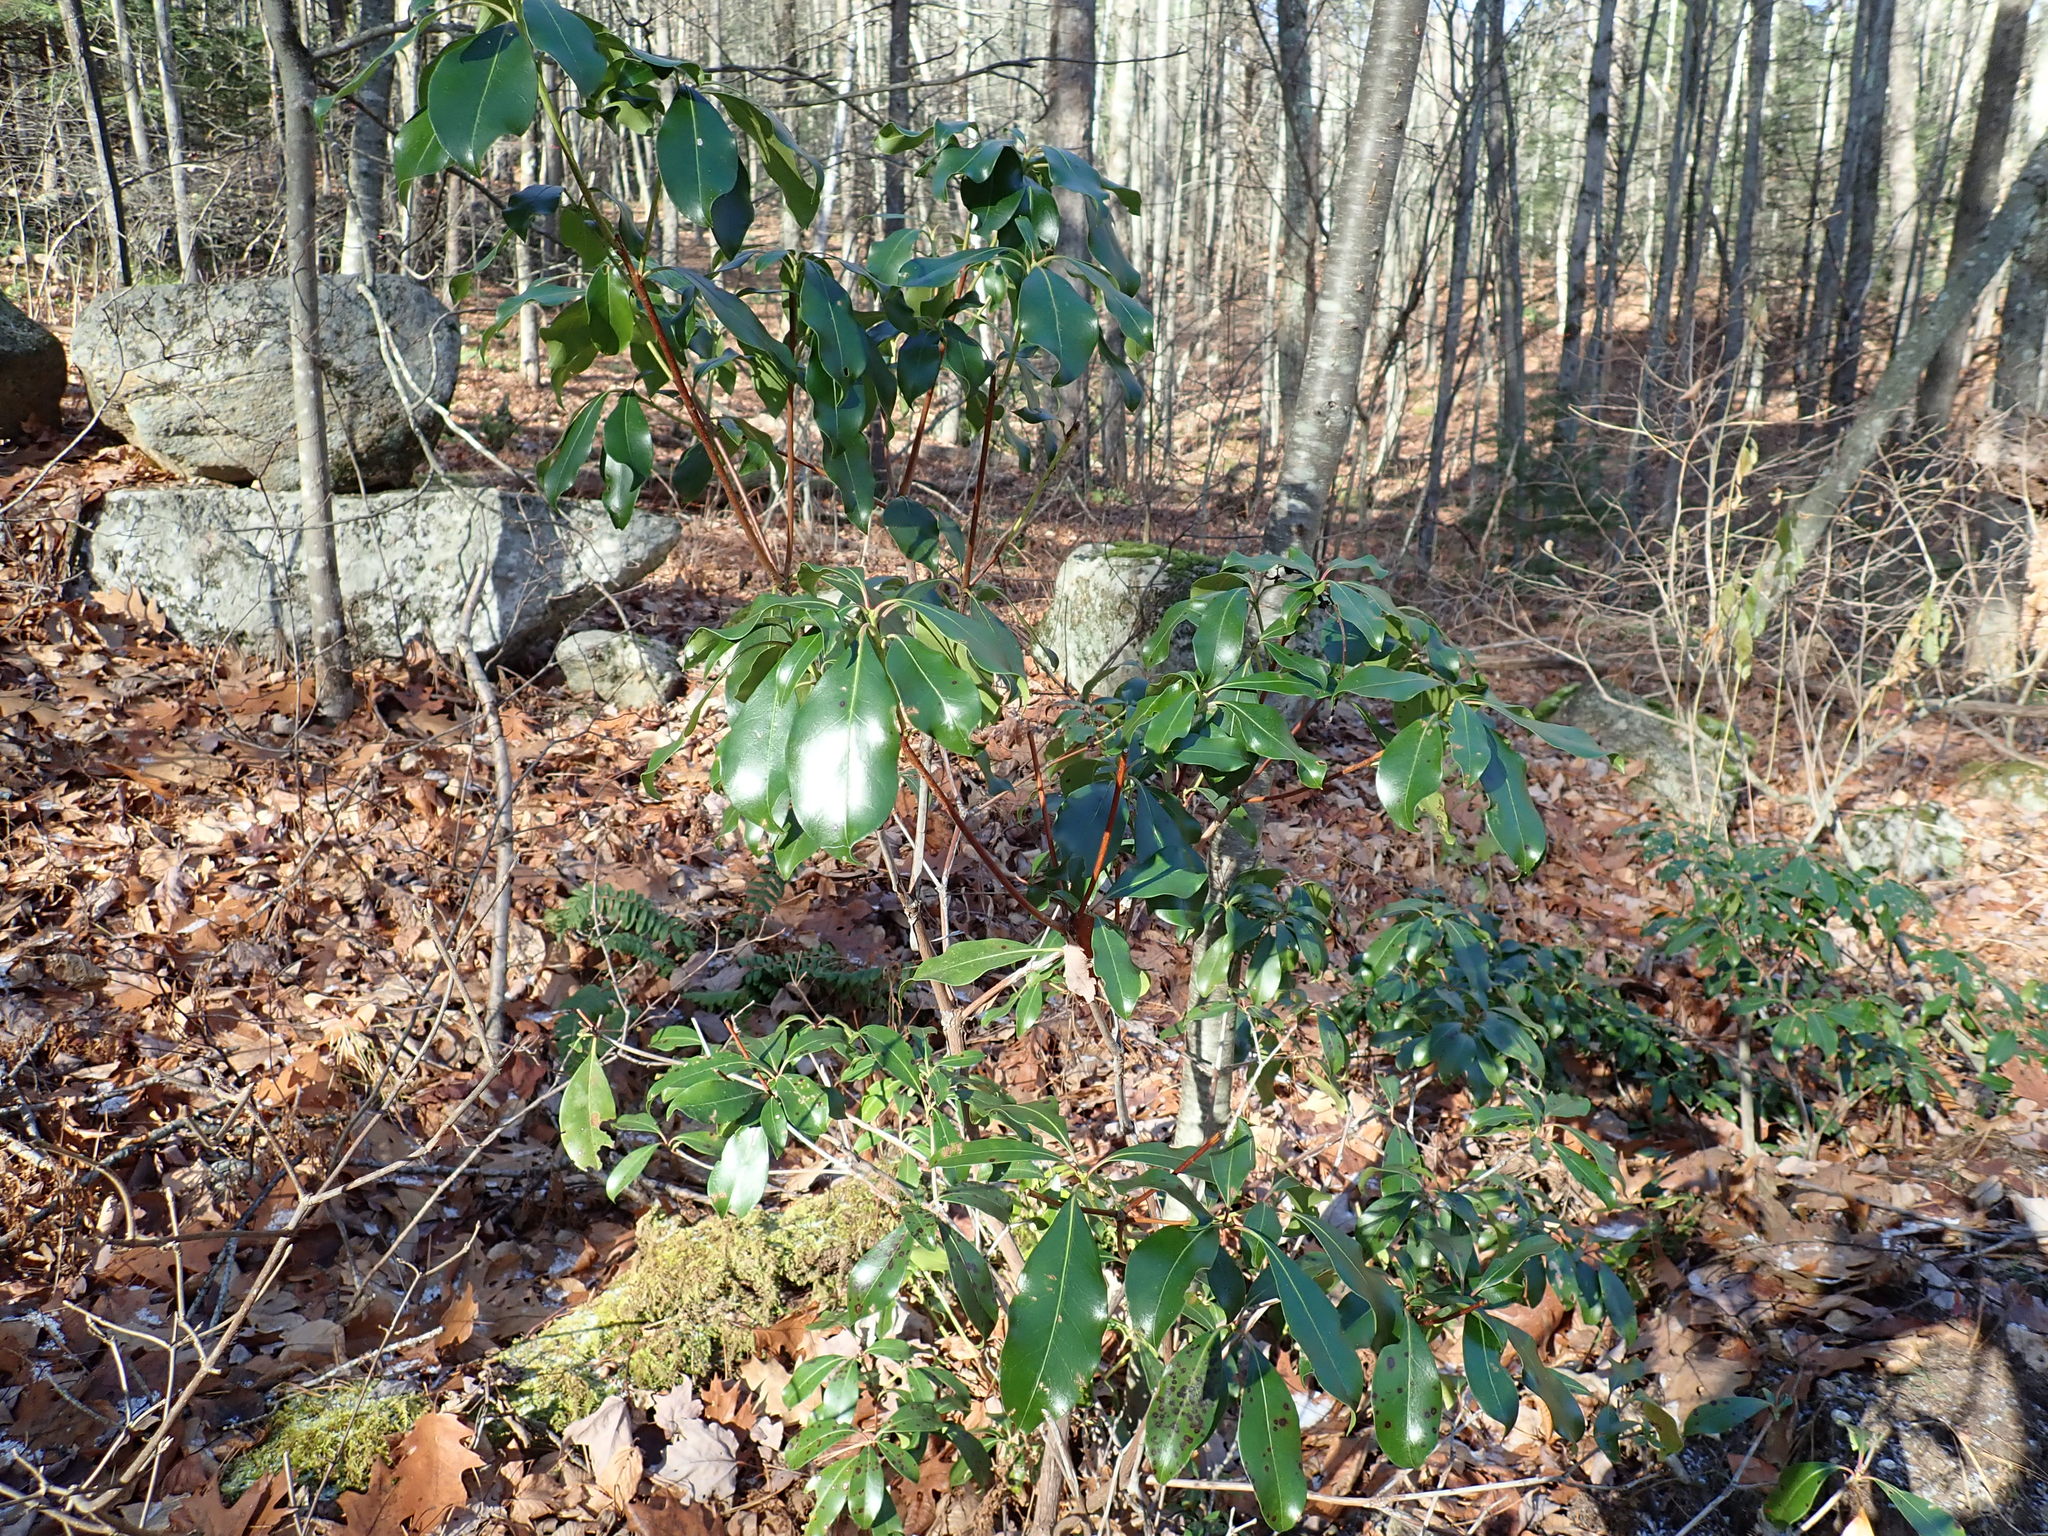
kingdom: Plantae
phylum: Tracheophyta
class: Magnoliopsida
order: Ericales
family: Ericaceae
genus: Kalmia
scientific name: Kalmia latifolia
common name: Mountain-laurel
